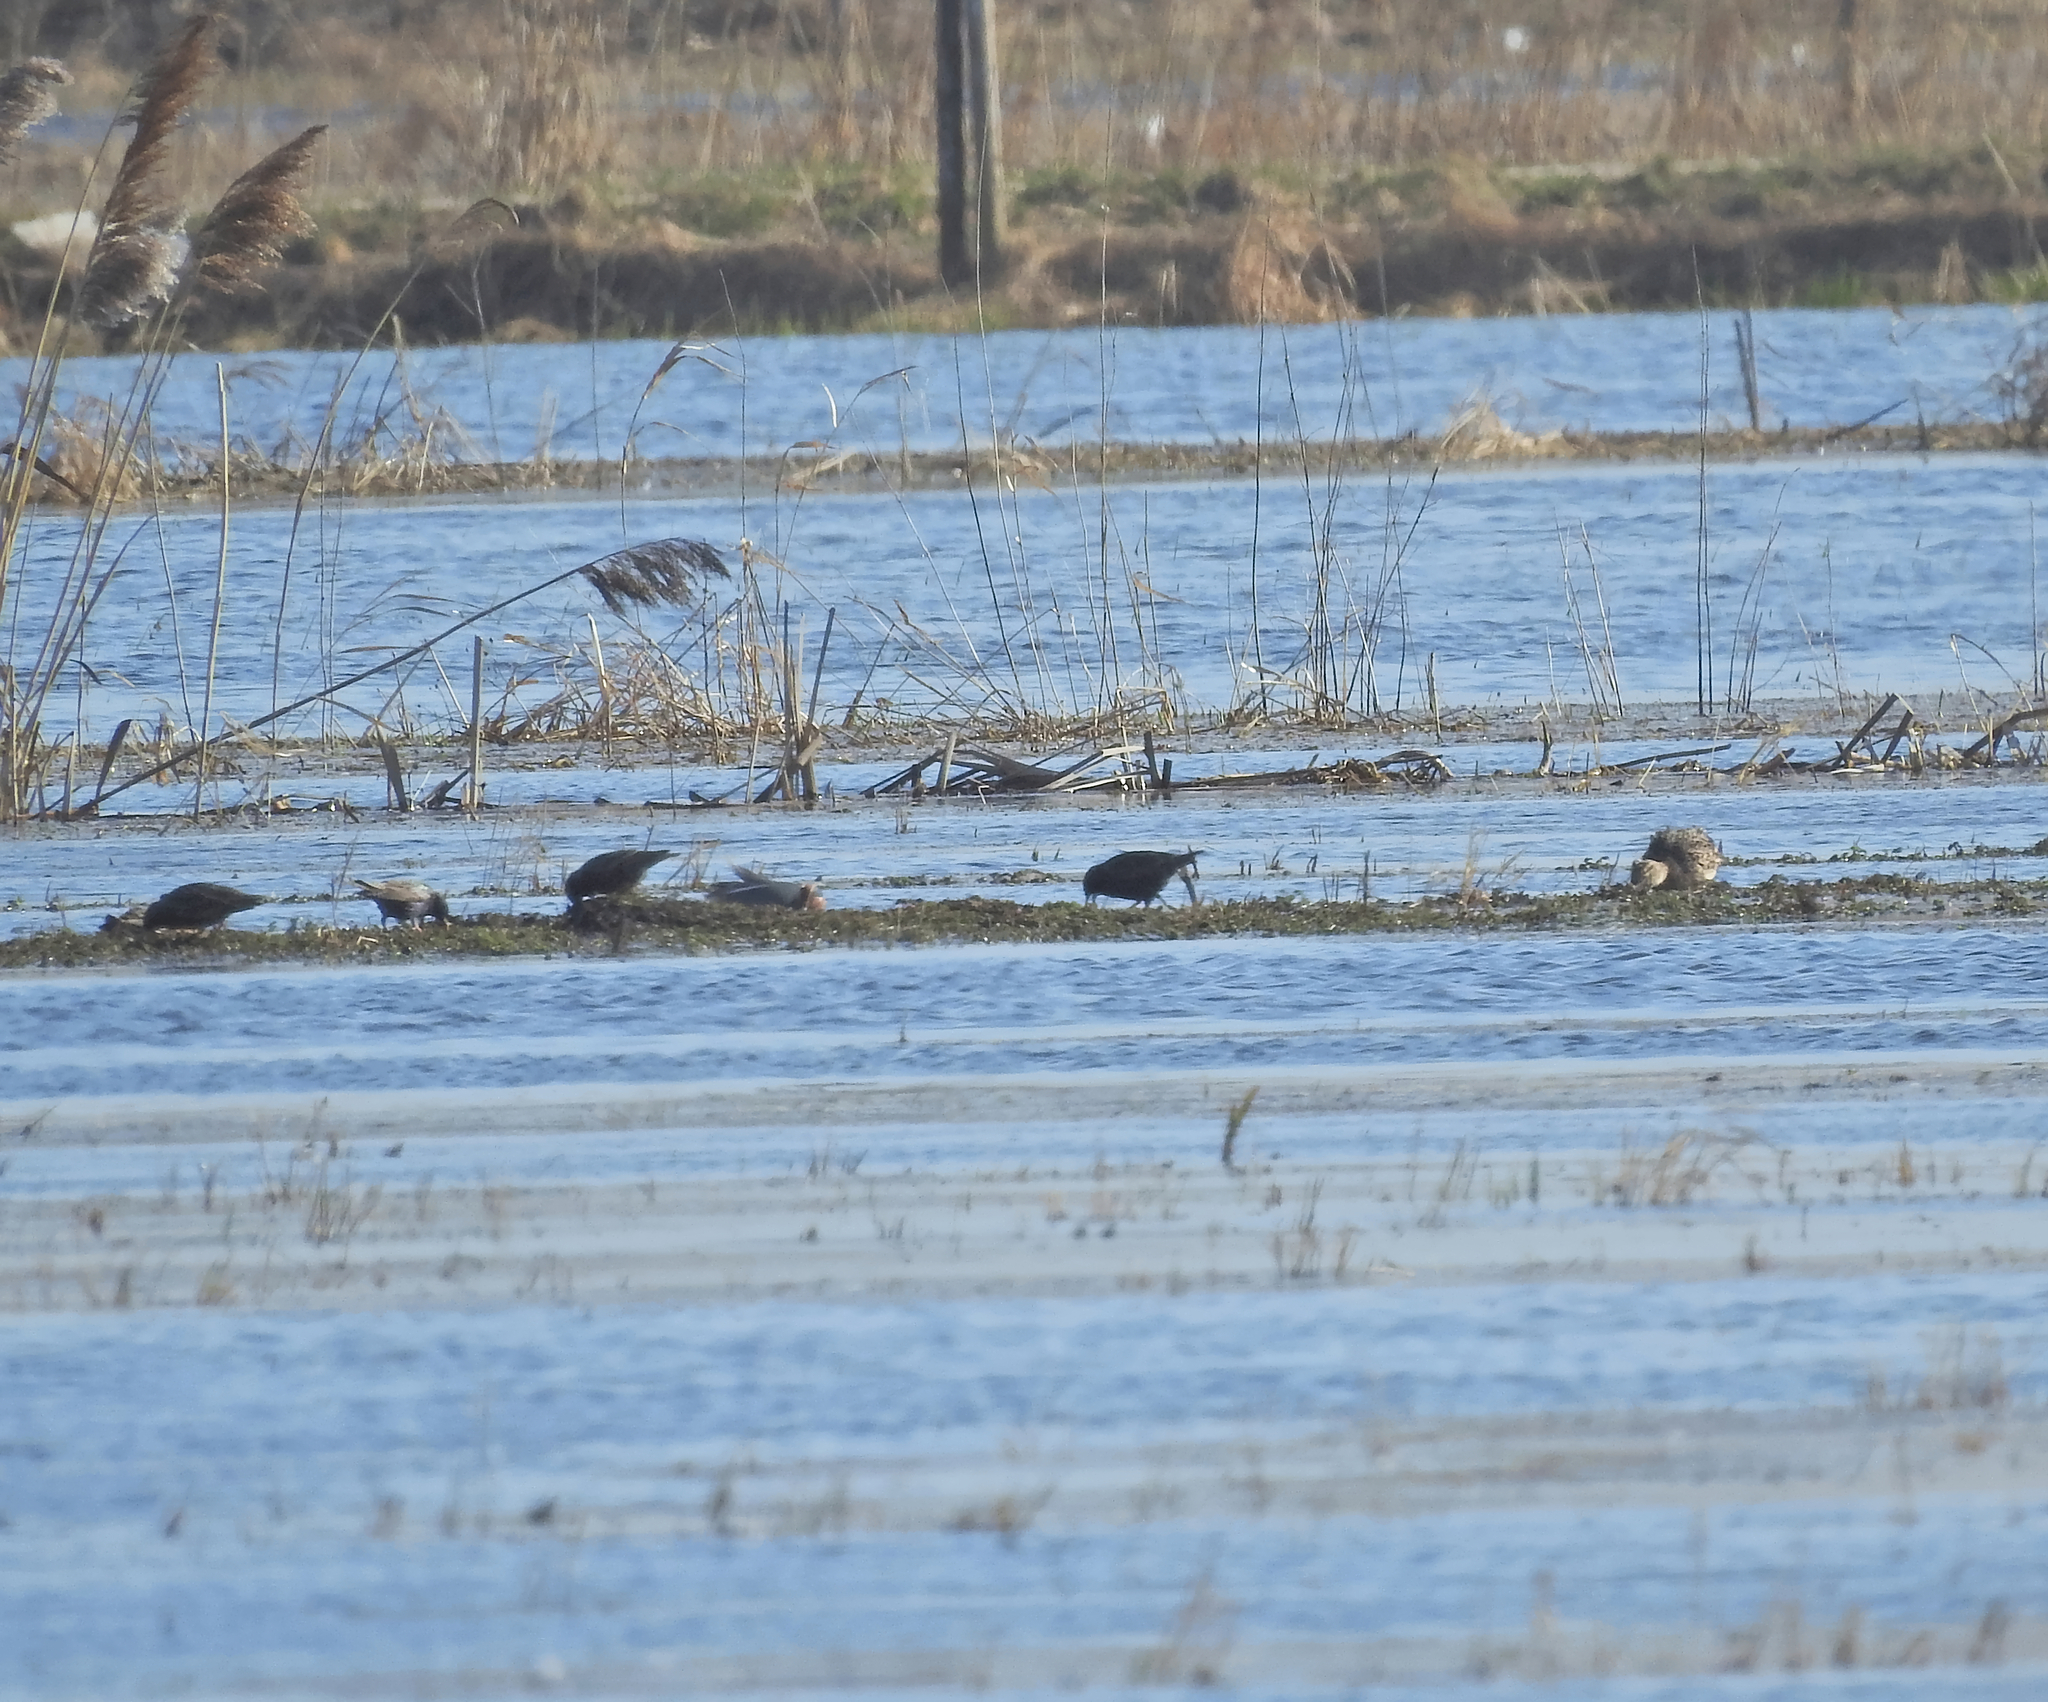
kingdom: Animalia
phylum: Chordata
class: Aves
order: Passeriformes
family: Sturnidae
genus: Sturnus
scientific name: Sturnus vulgaris
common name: Common starling
